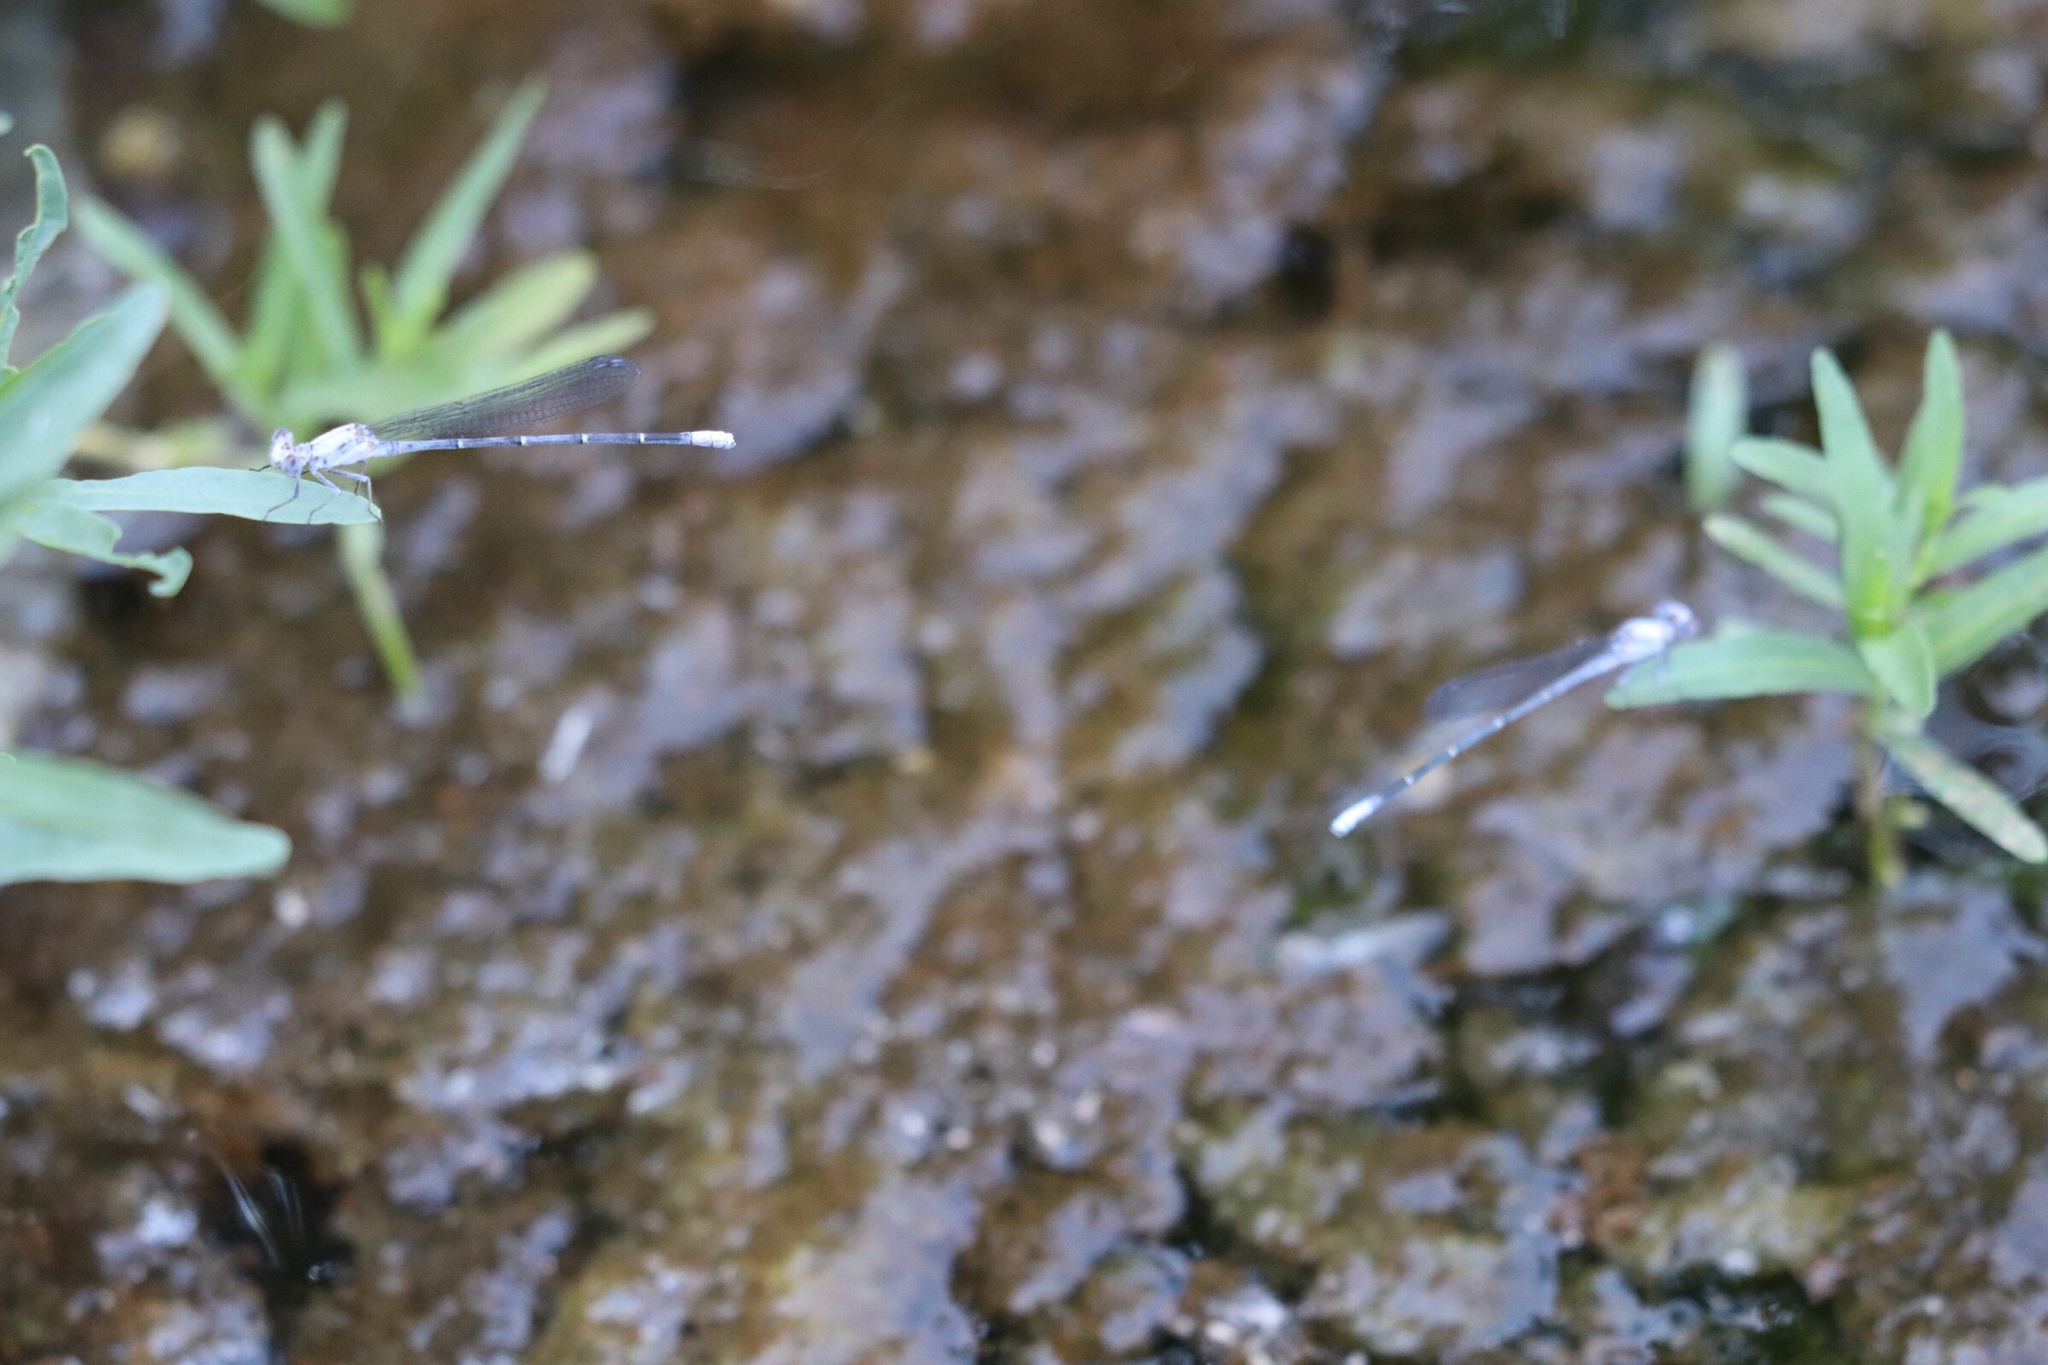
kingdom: Animalia
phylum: Arthropoda
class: Insecta
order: Odonata
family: Coenagrionidae
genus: Argia
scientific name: Argia moesta
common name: Powdered dancer
